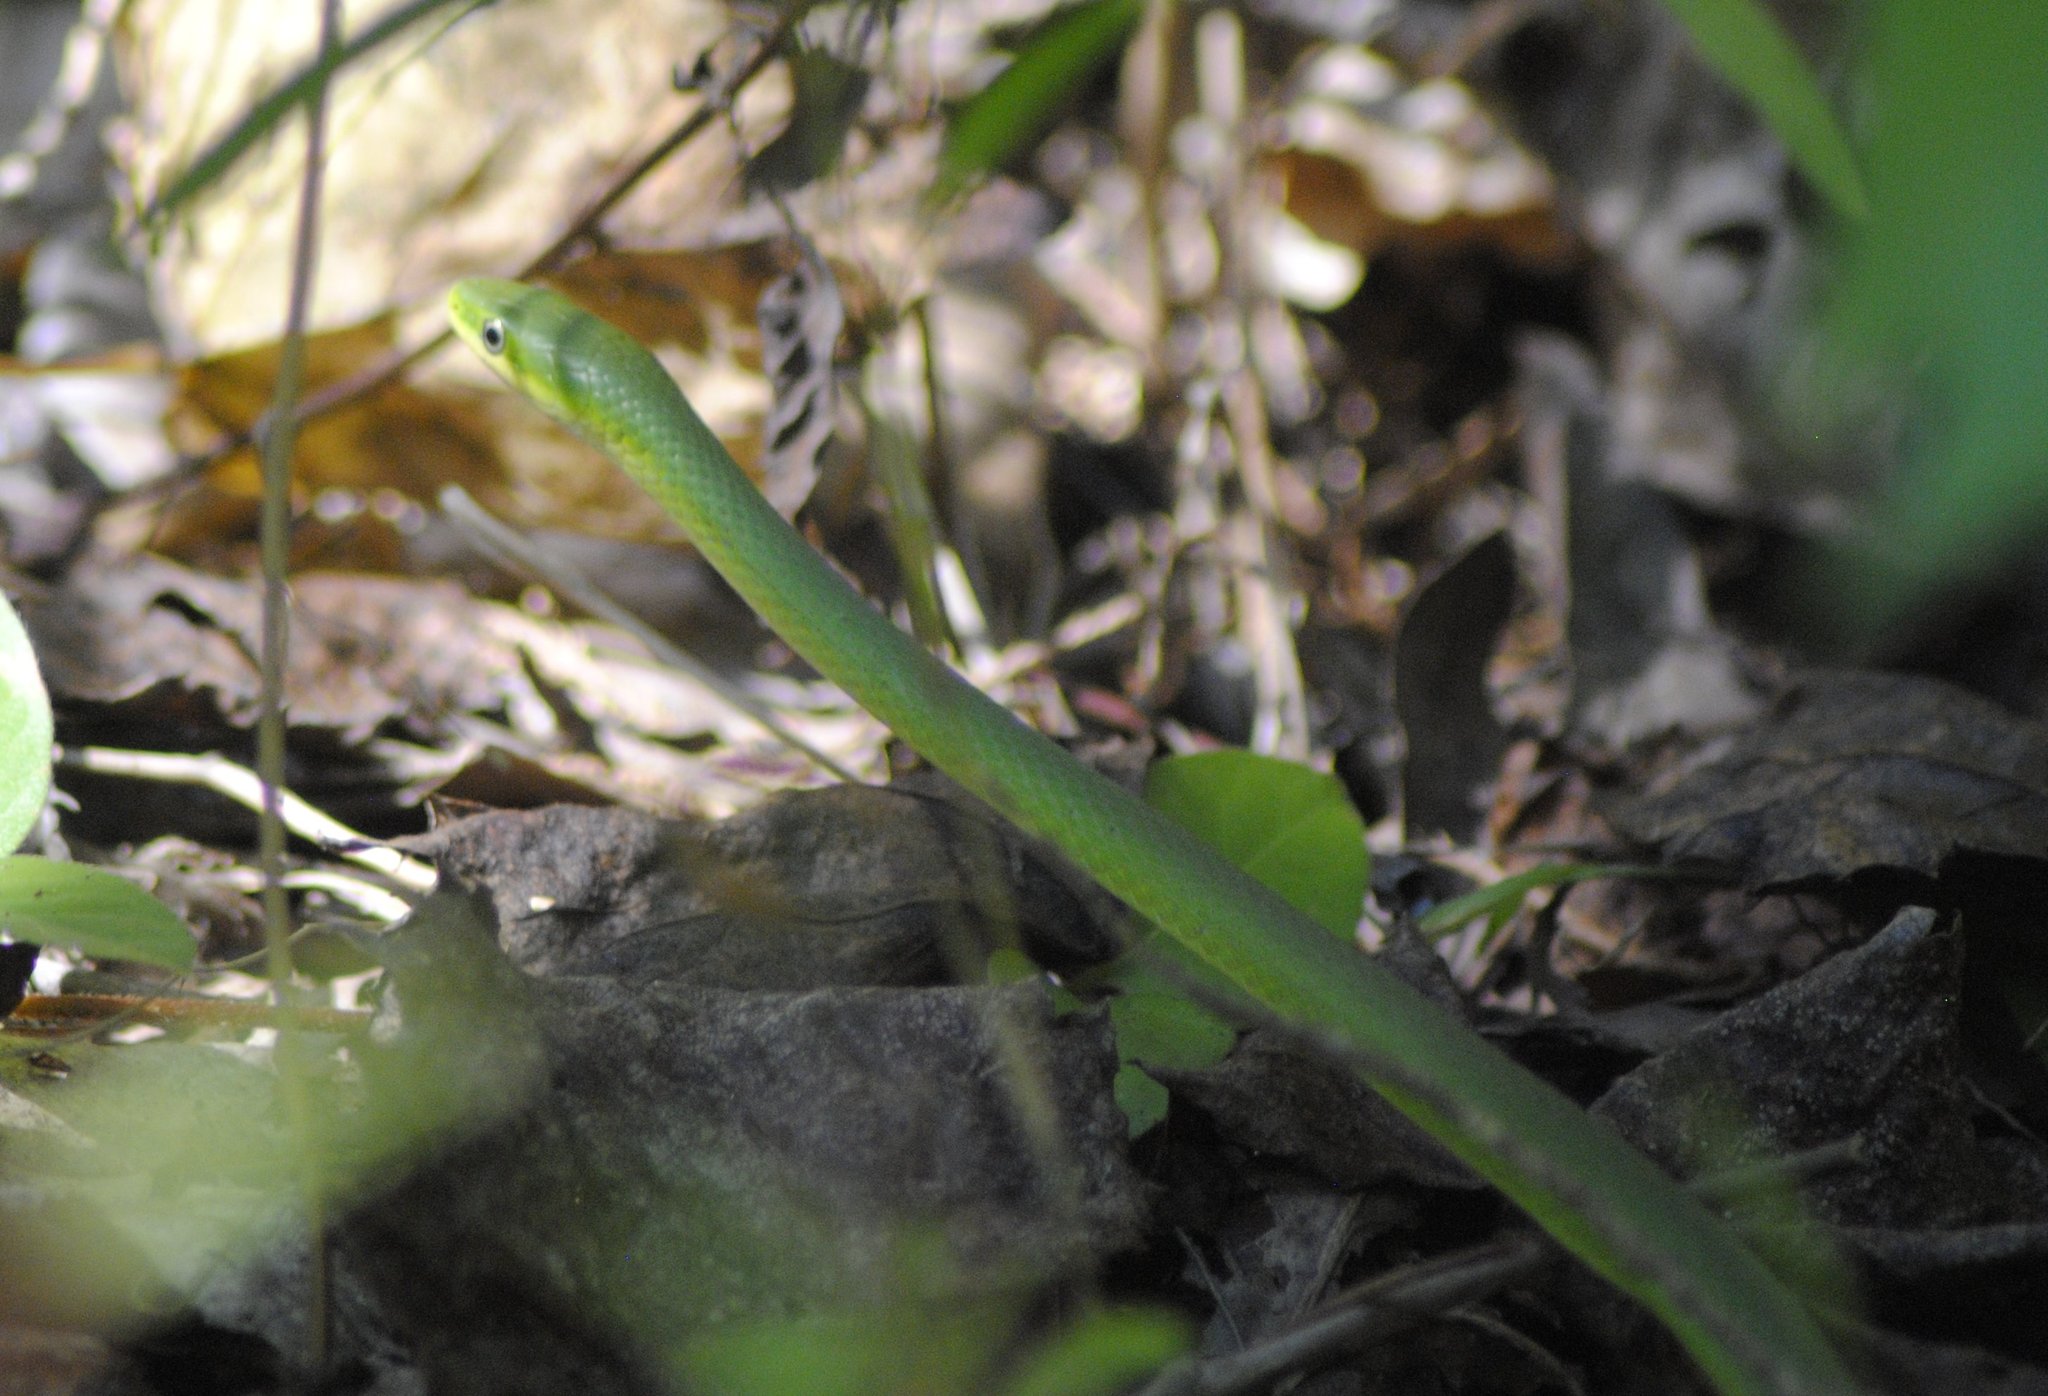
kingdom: Animalia
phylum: Chordata
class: Squamata
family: Colubridae
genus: Opheodrys
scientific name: Opheodrys aestivus
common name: Rough greensnake
